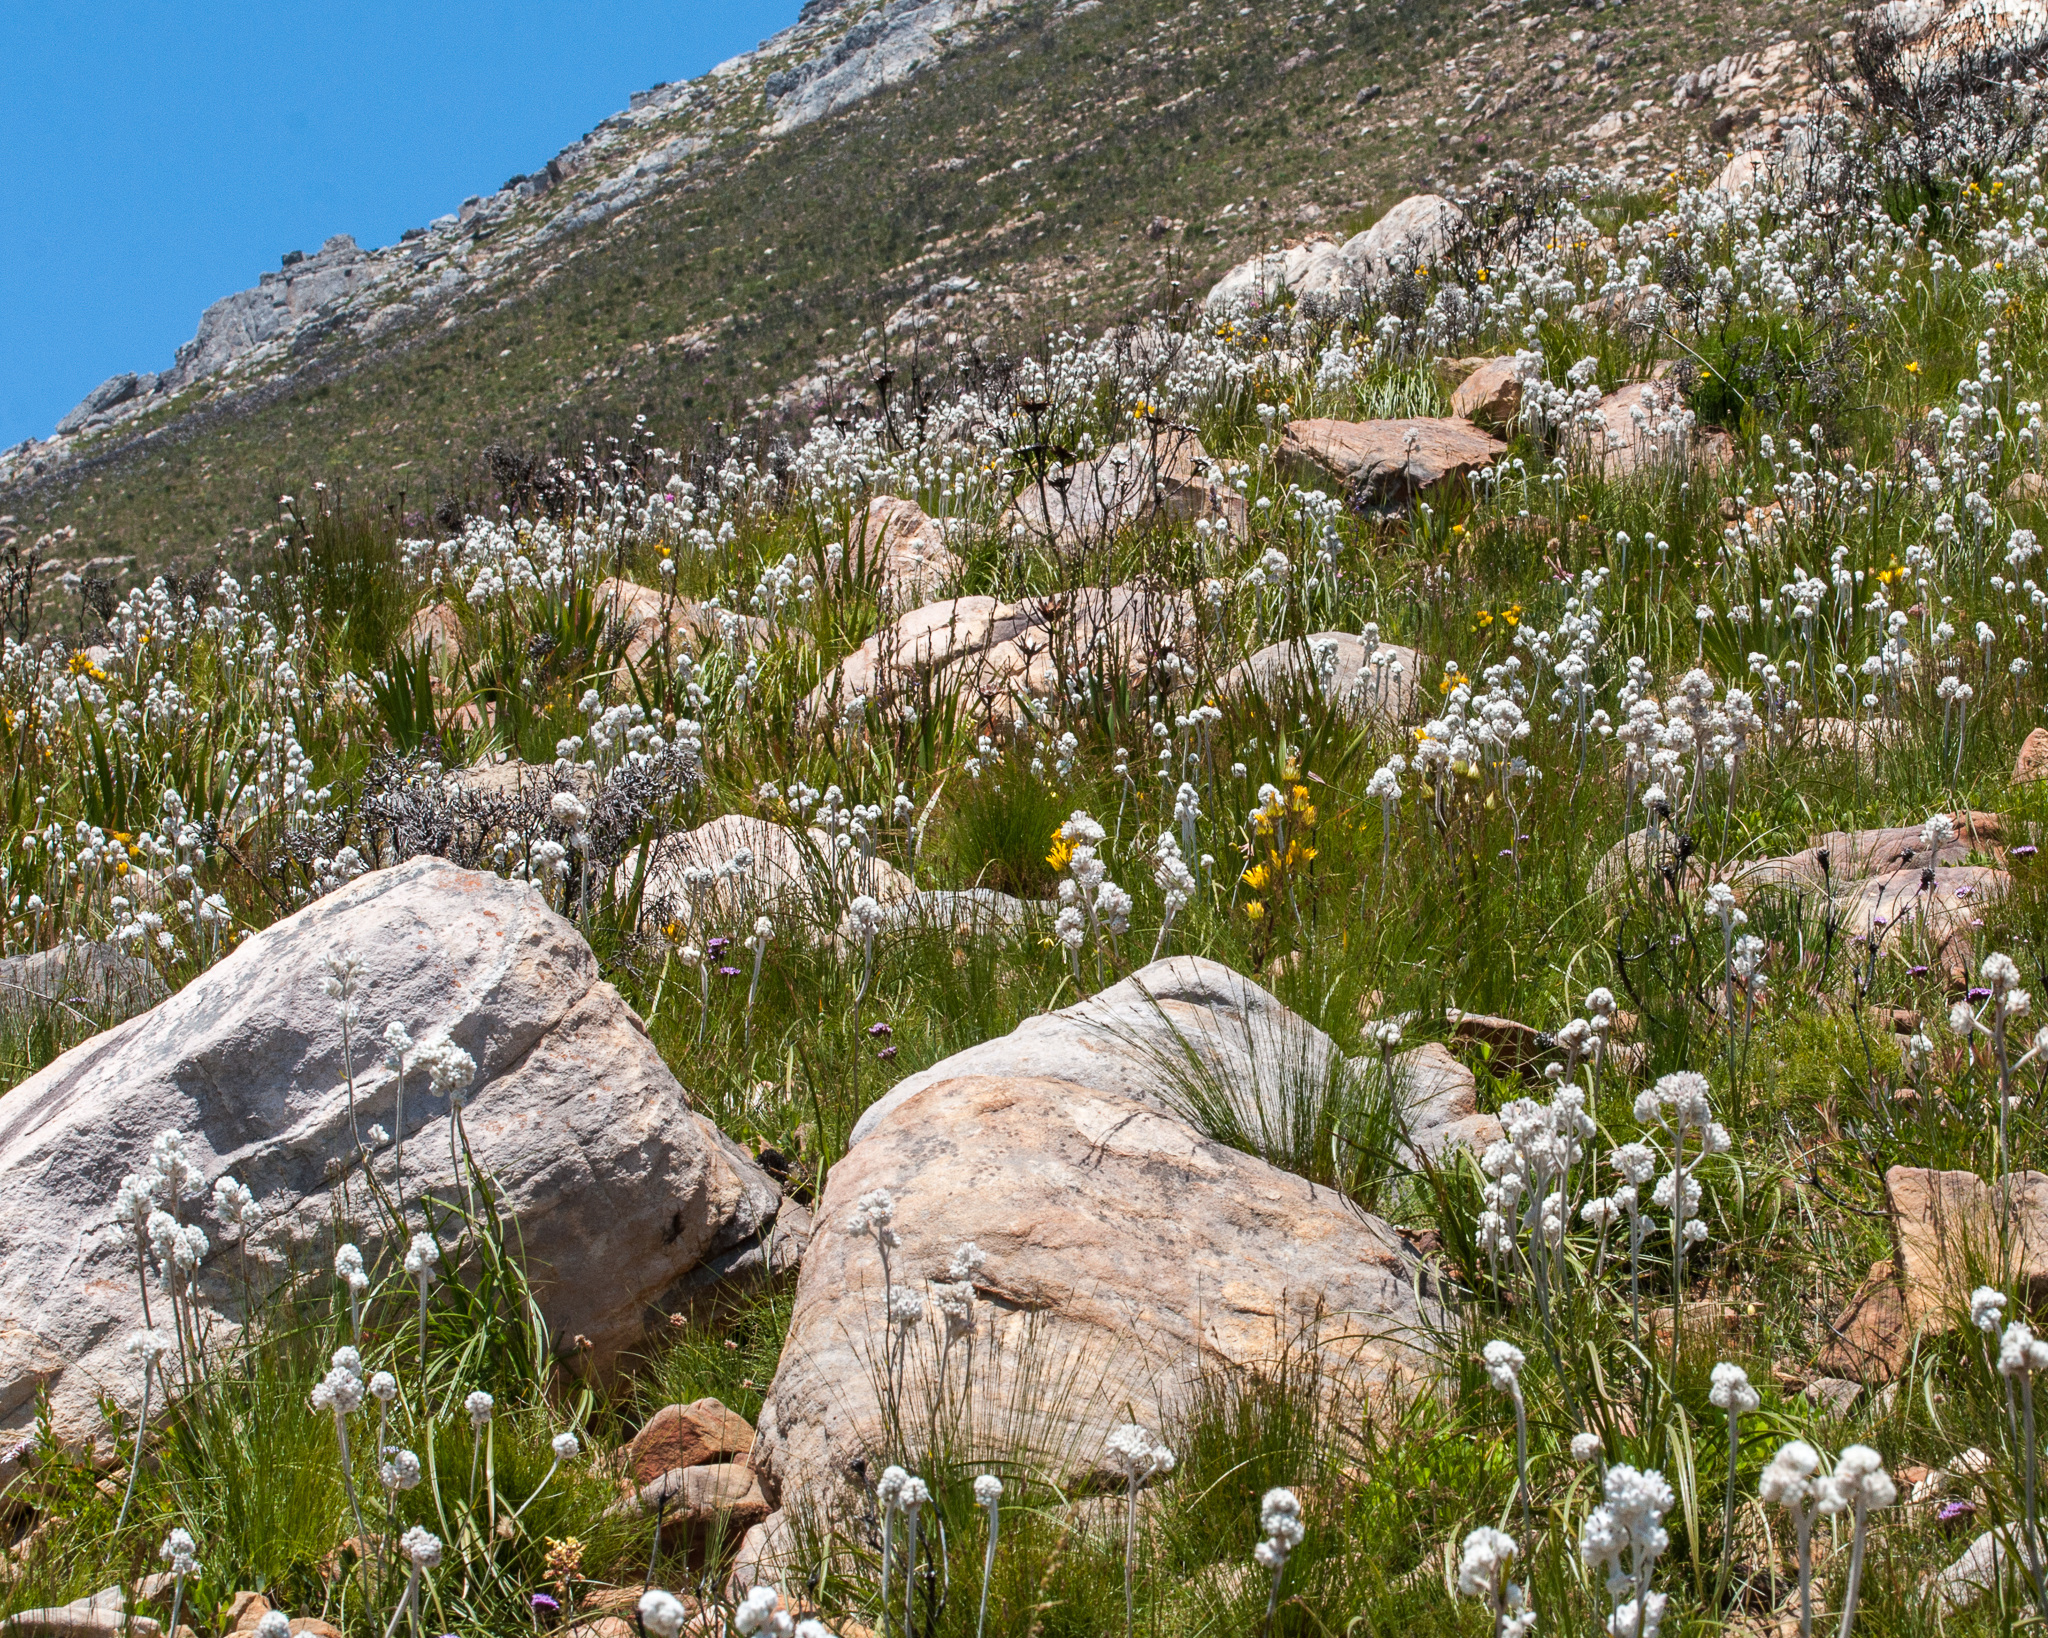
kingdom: Plantae
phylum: Tracheophyta
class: Liliopsida
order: Asparagales
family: Lanariaceae
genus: Lanaria
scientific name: Lanaria lanata
